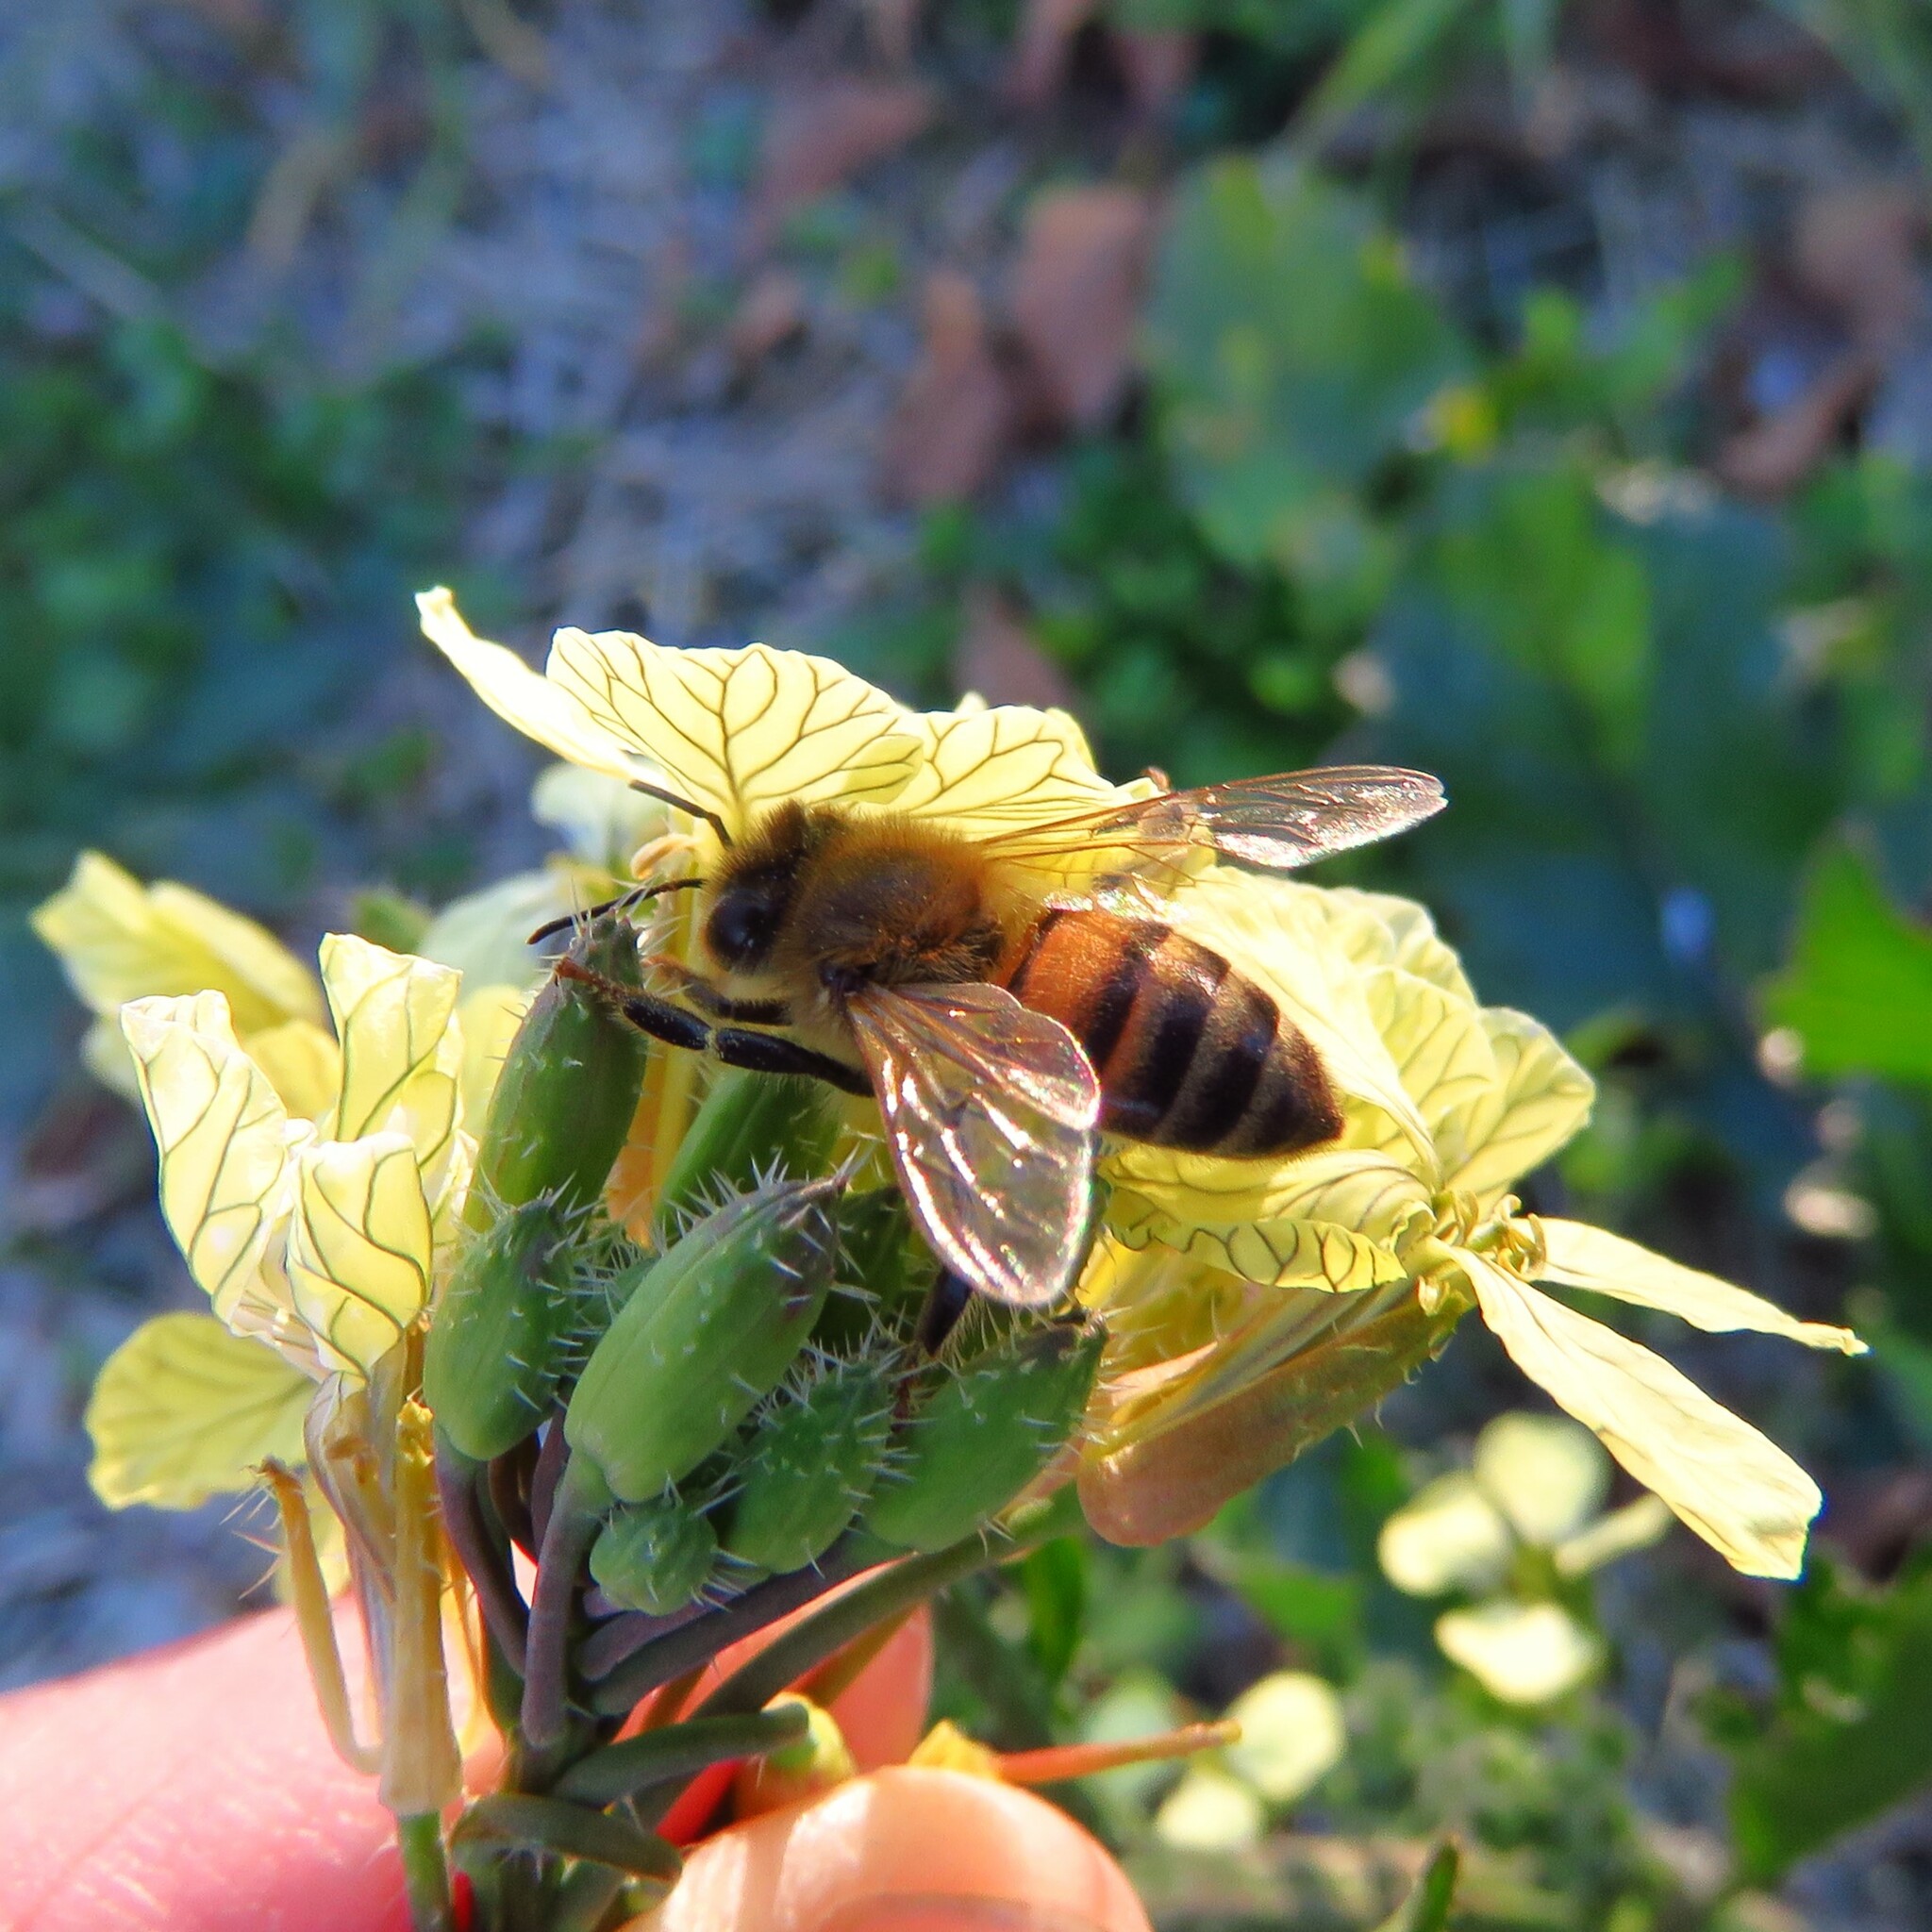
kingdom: Plantae
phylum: Tracheophyta
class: Magnoliopsida
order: Brassicales
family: Brassicaceae
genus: Raphanus
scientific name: Raphanus raphanistrum
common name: Wild radish
